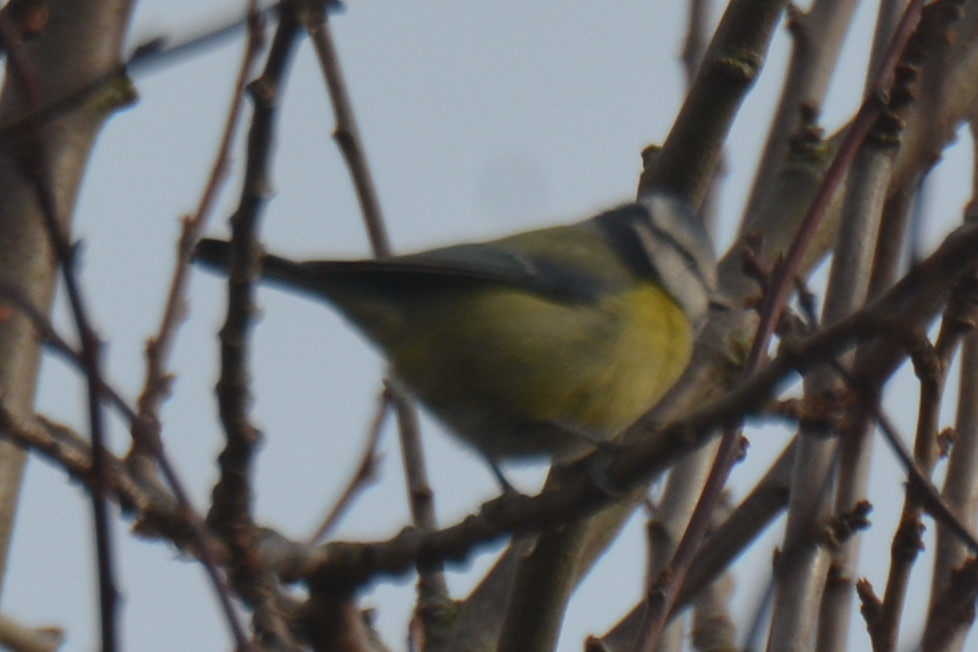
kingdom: Animalia
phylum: Chordata
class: Aves
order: Passeriformes
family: Paridae
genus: Cyanistes
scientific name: Cyanistes caeruleus
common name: Eurasian blue tit
